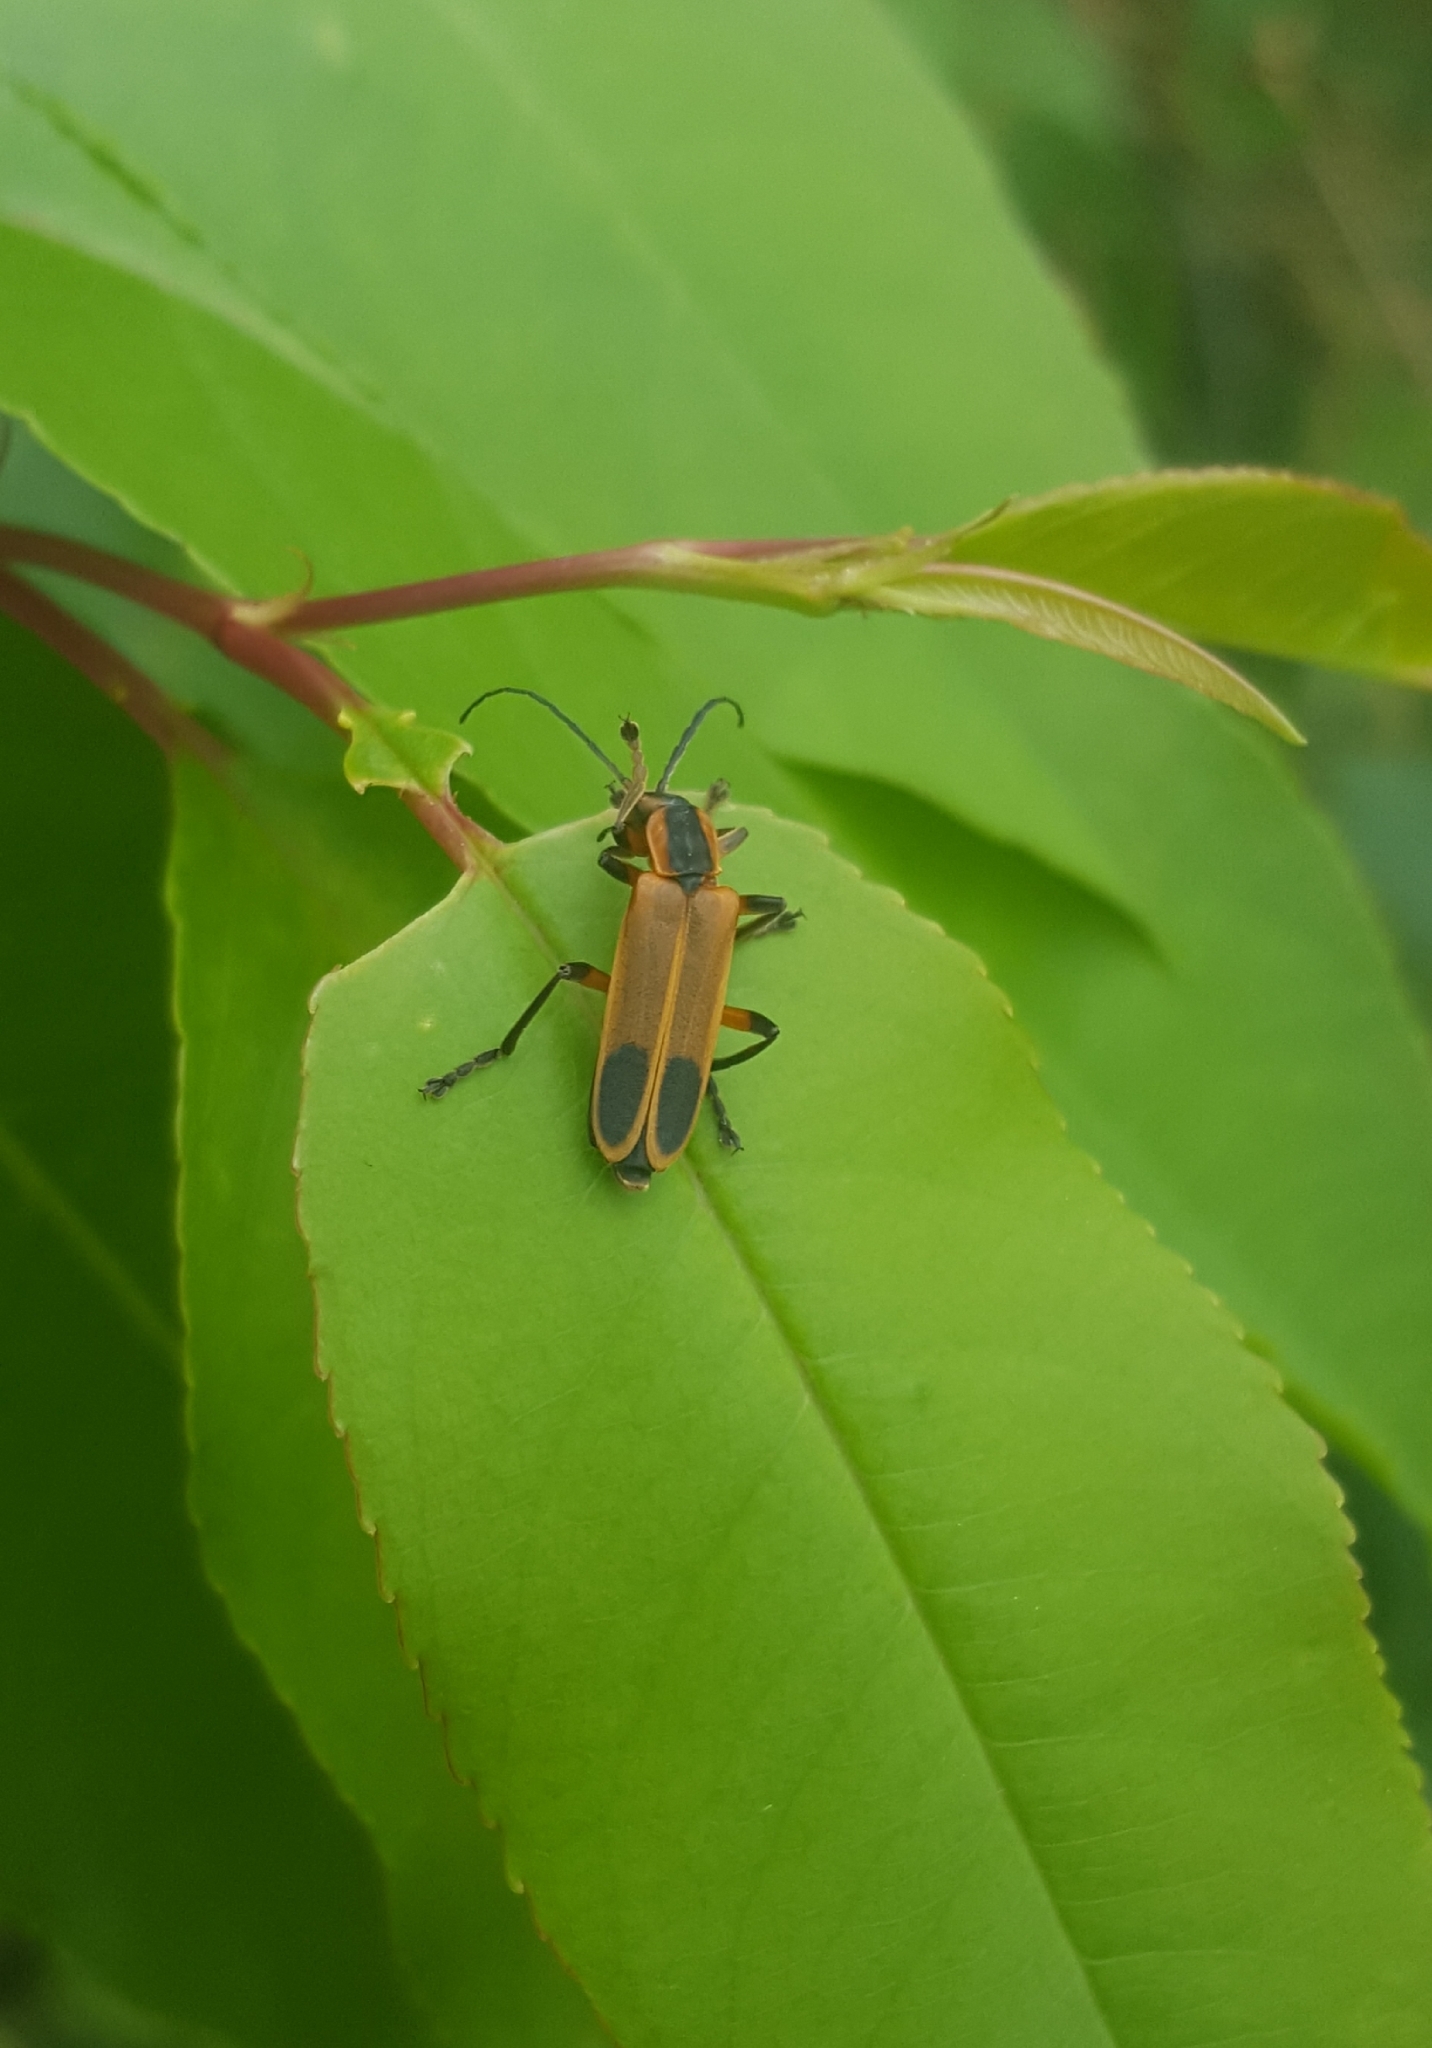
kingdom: Animalia
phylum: Arthropoda
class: Insecta
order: Coleoptera
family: Cantharidae
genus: Chauliognathus
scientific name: Chauliognathus marginatus
